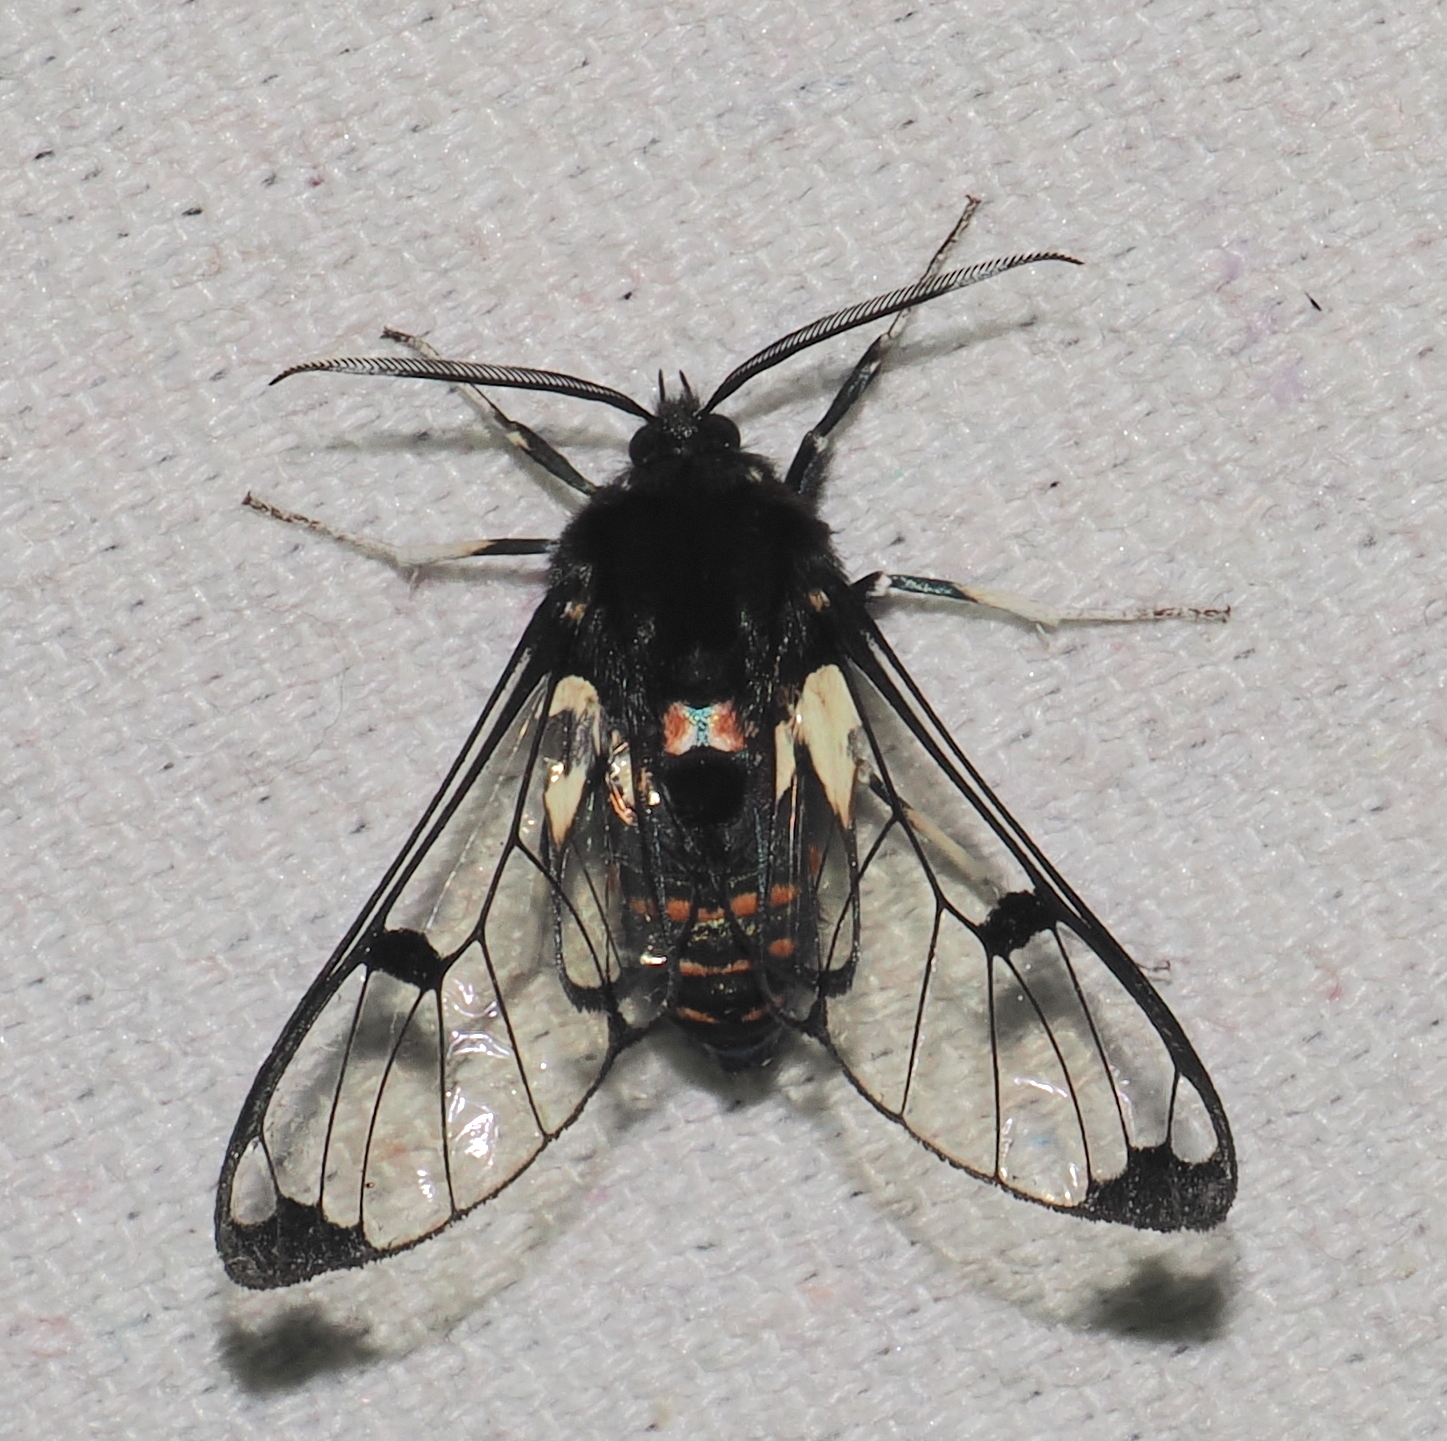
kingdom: Animalia
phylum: Arthropoda
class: Insecta
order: Lepidoptera
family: Erebidae
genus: Dasysphinx
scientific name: Dasysphinx buckleyi
